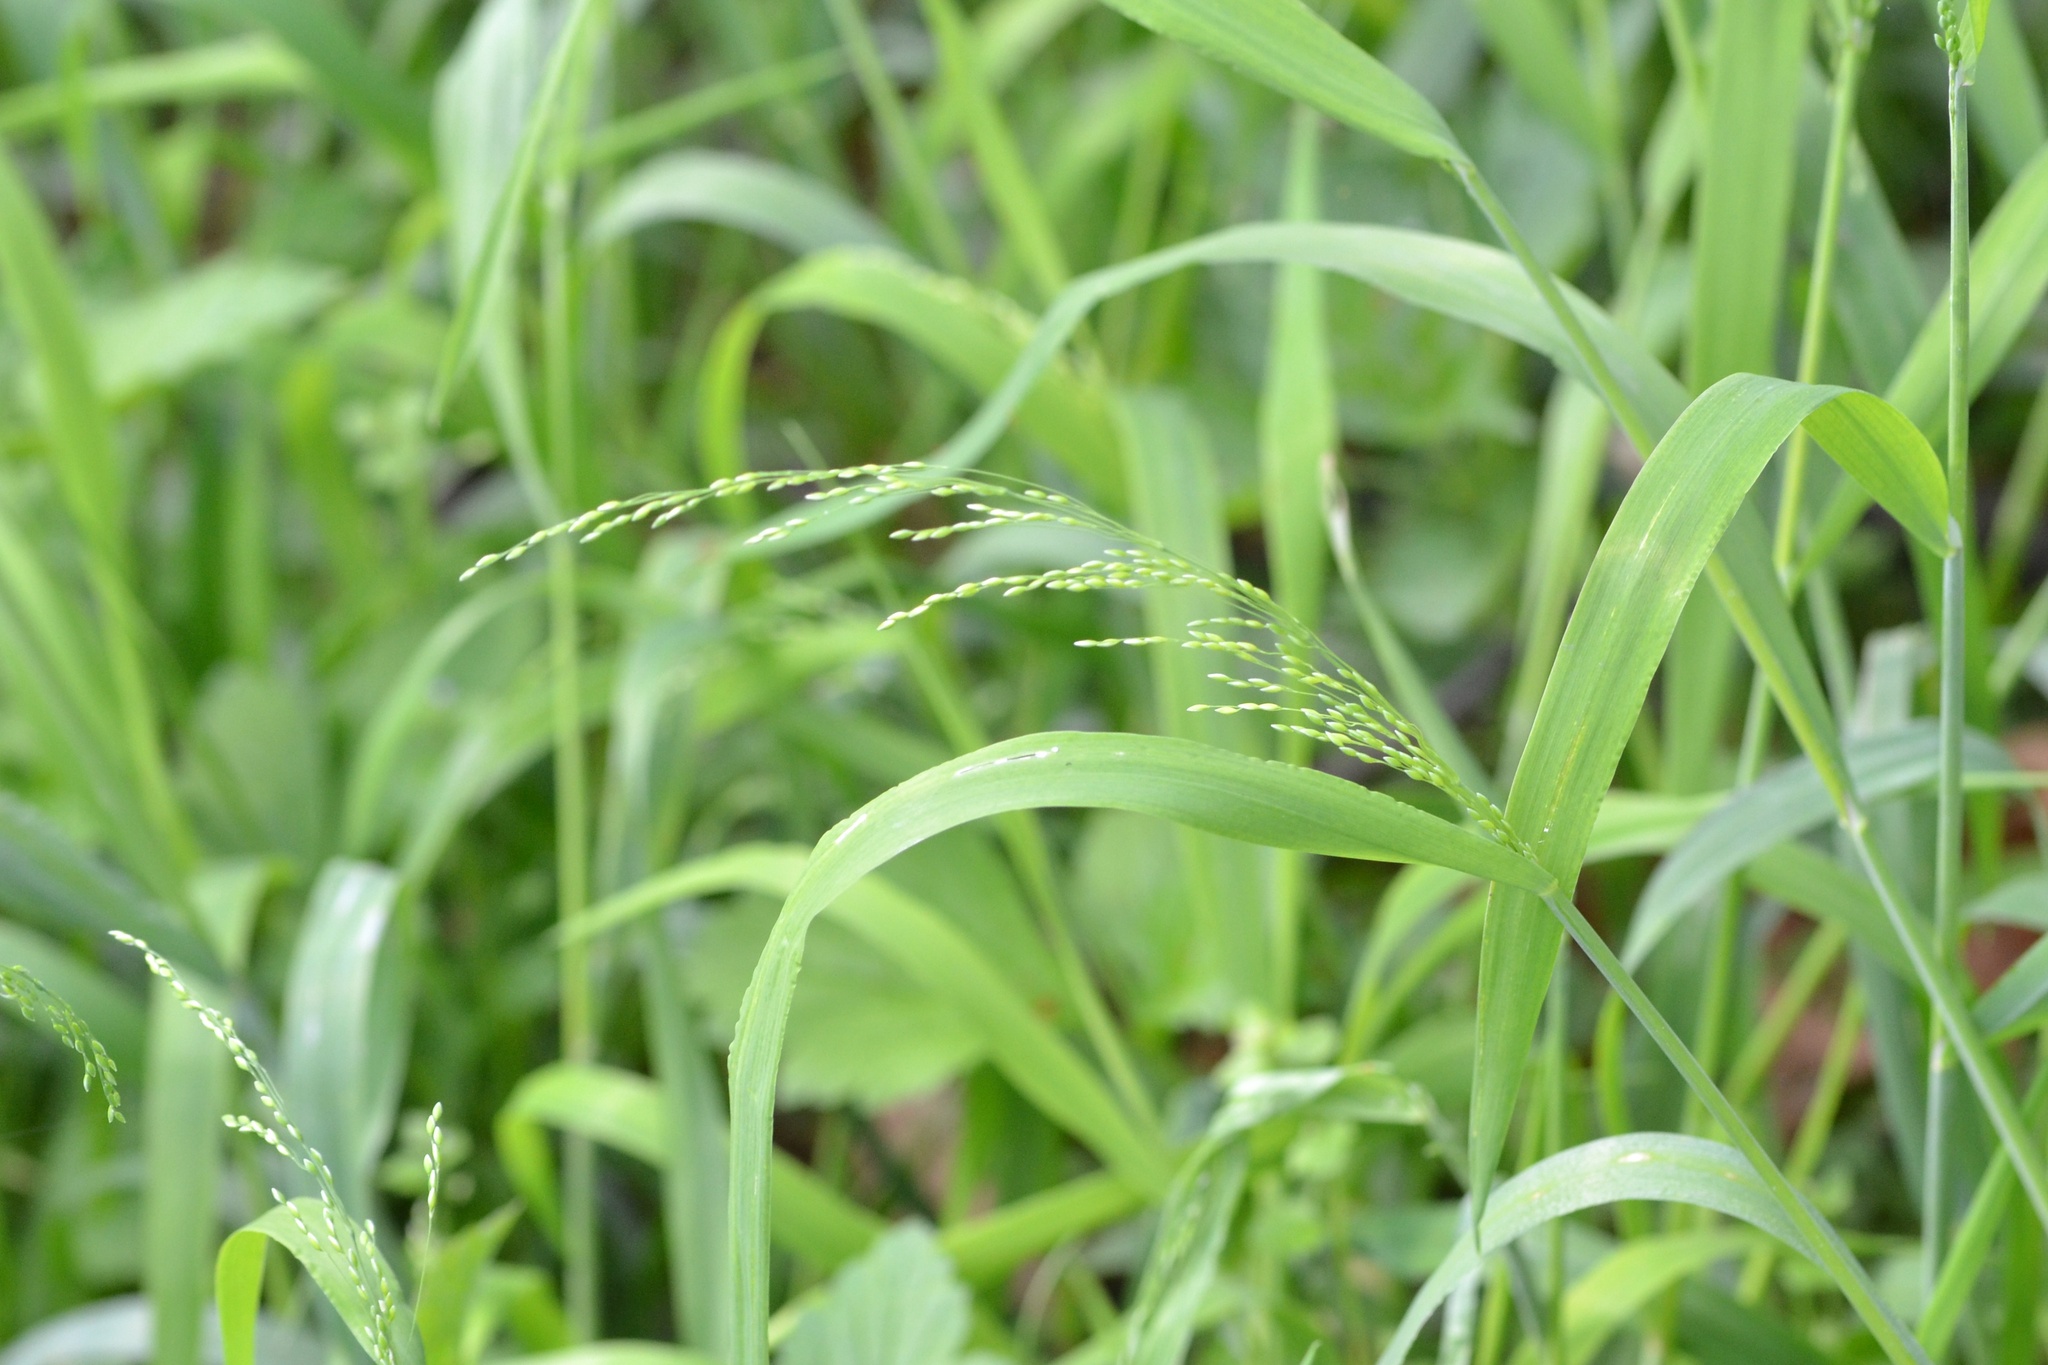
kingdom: Plantae
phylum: Tracheophyta
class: Liliopsida
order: Poales
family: Poaceae
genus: Milium
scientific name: Milium effusum
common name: Wood millet
